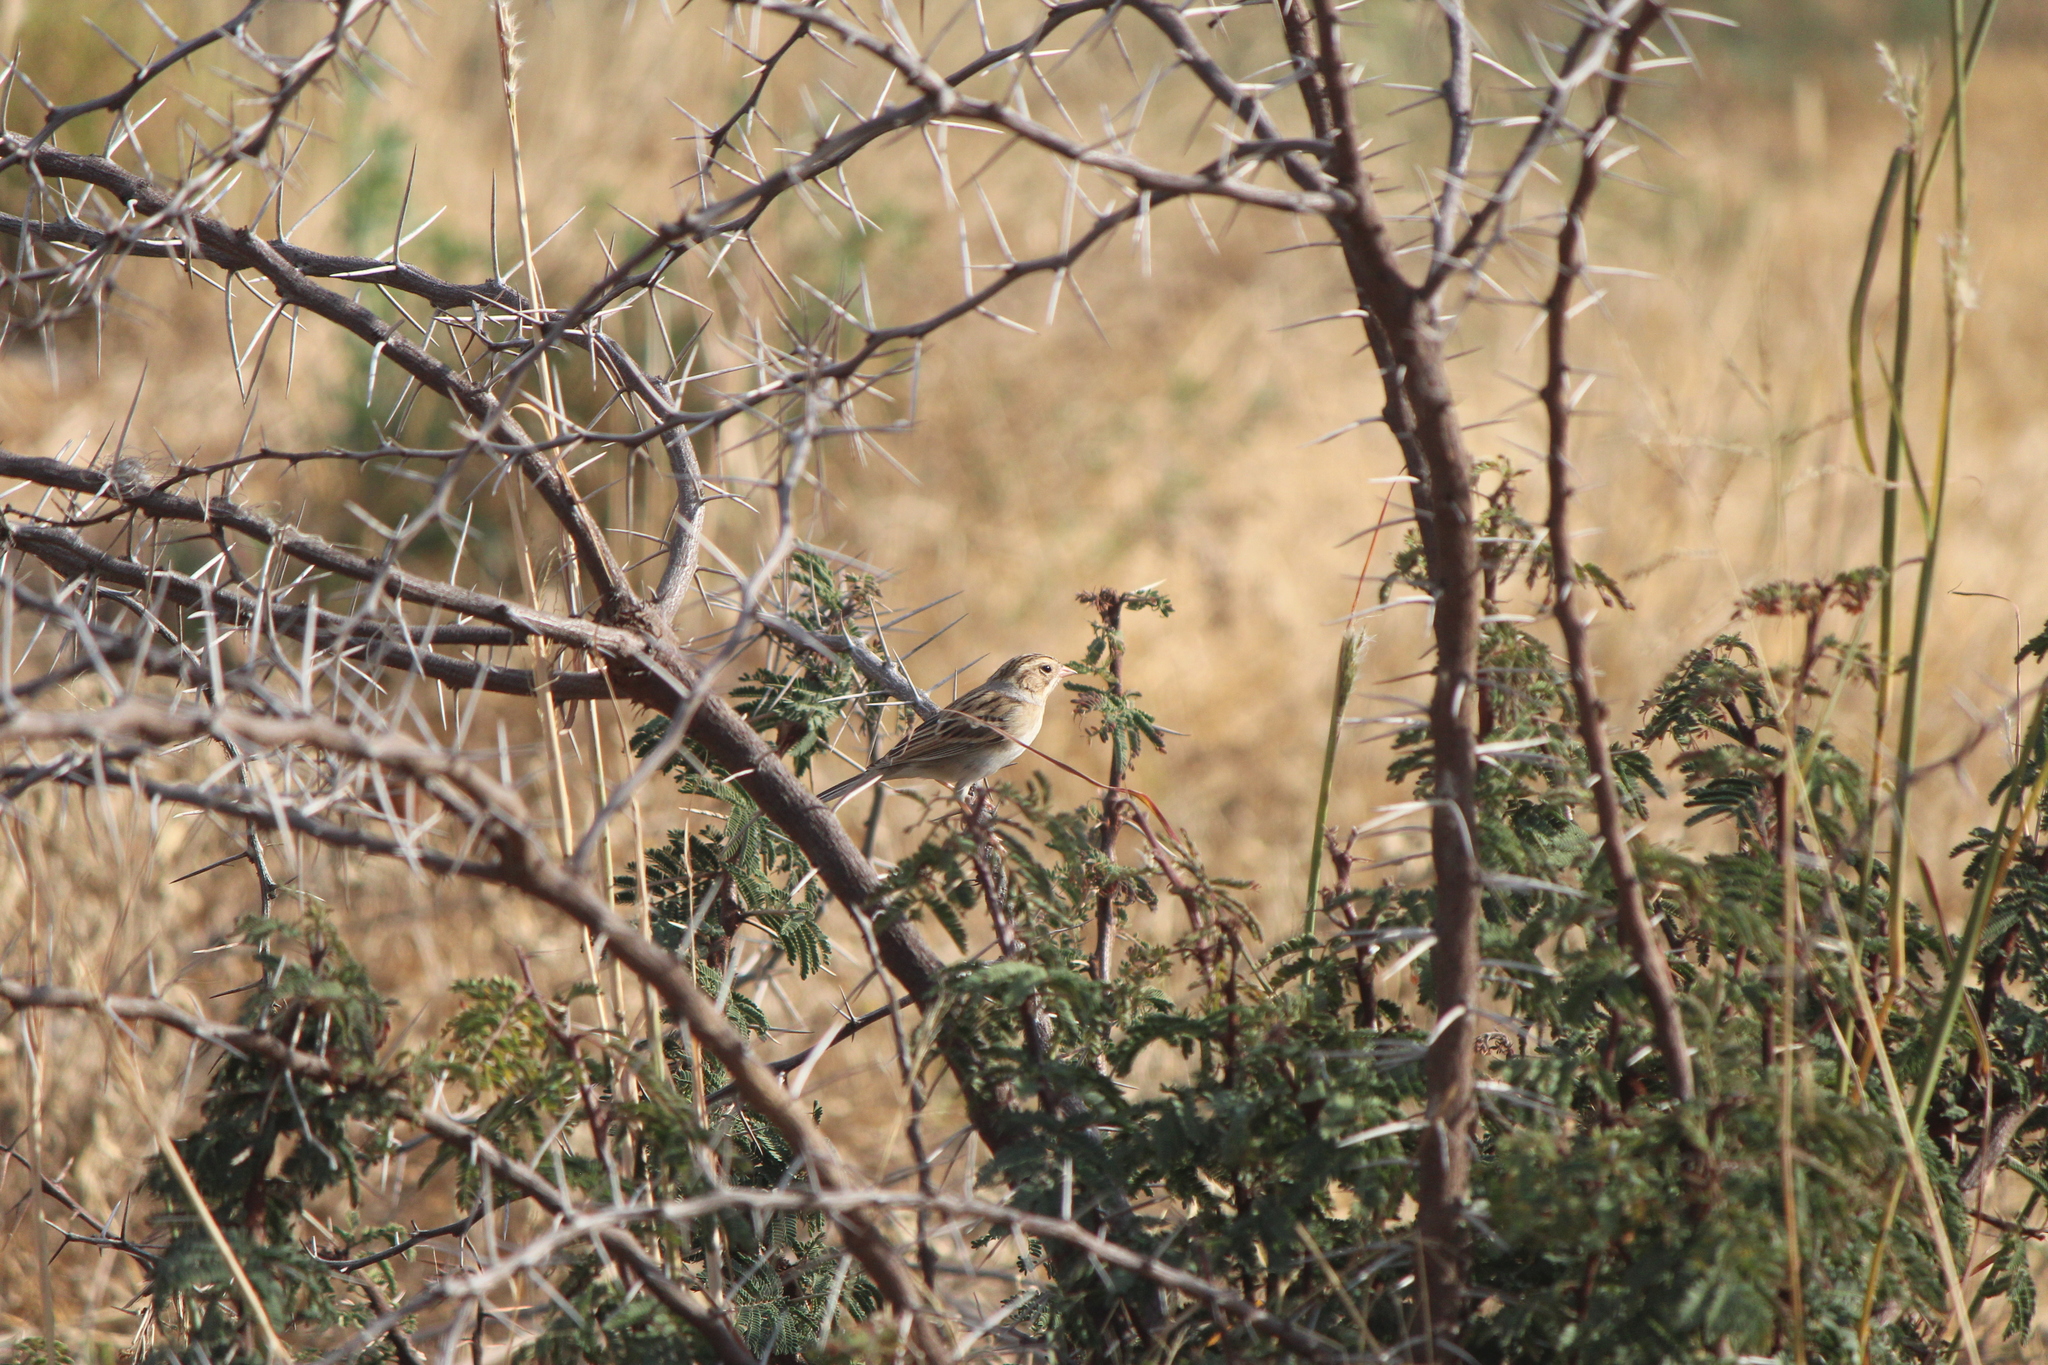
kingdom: Animalia
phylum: Chordata
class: Aves
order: Passeriformes
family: Passerellidae
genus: Spizella
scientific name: Spizella pallida
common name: Clay-colored sparrow
